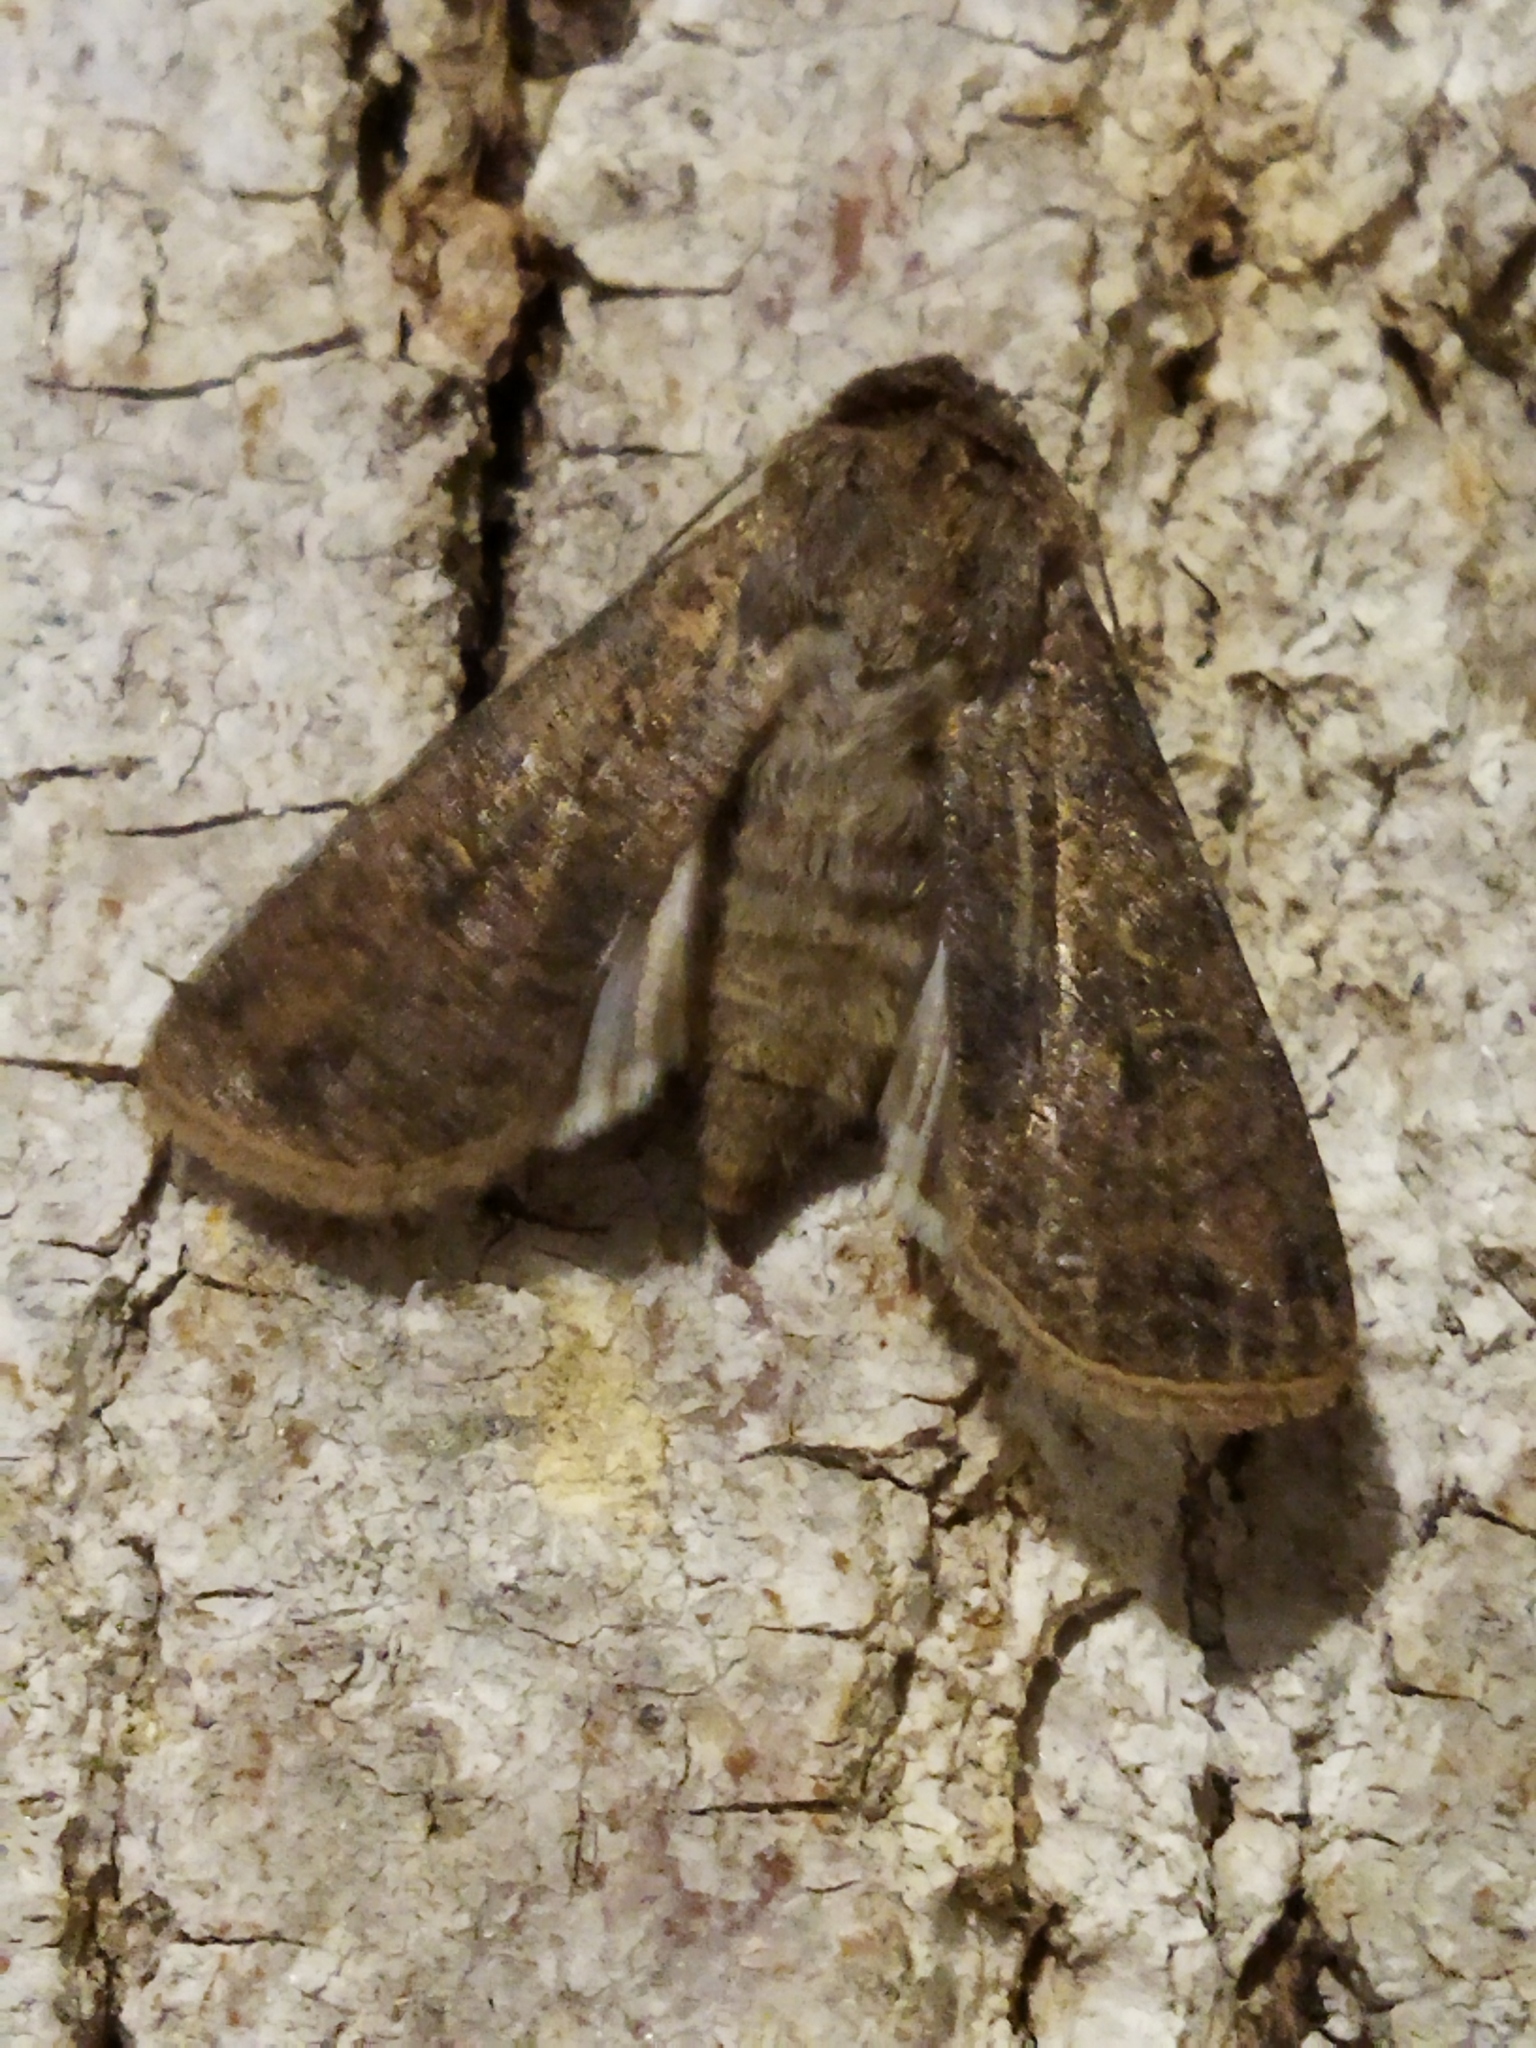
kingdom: Animalia
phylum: Arthropoda
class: Insecta
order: Lepidoptera
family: Noctuidae
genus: Agrotis
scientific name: Agrotis segetum
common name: Turnip moth
